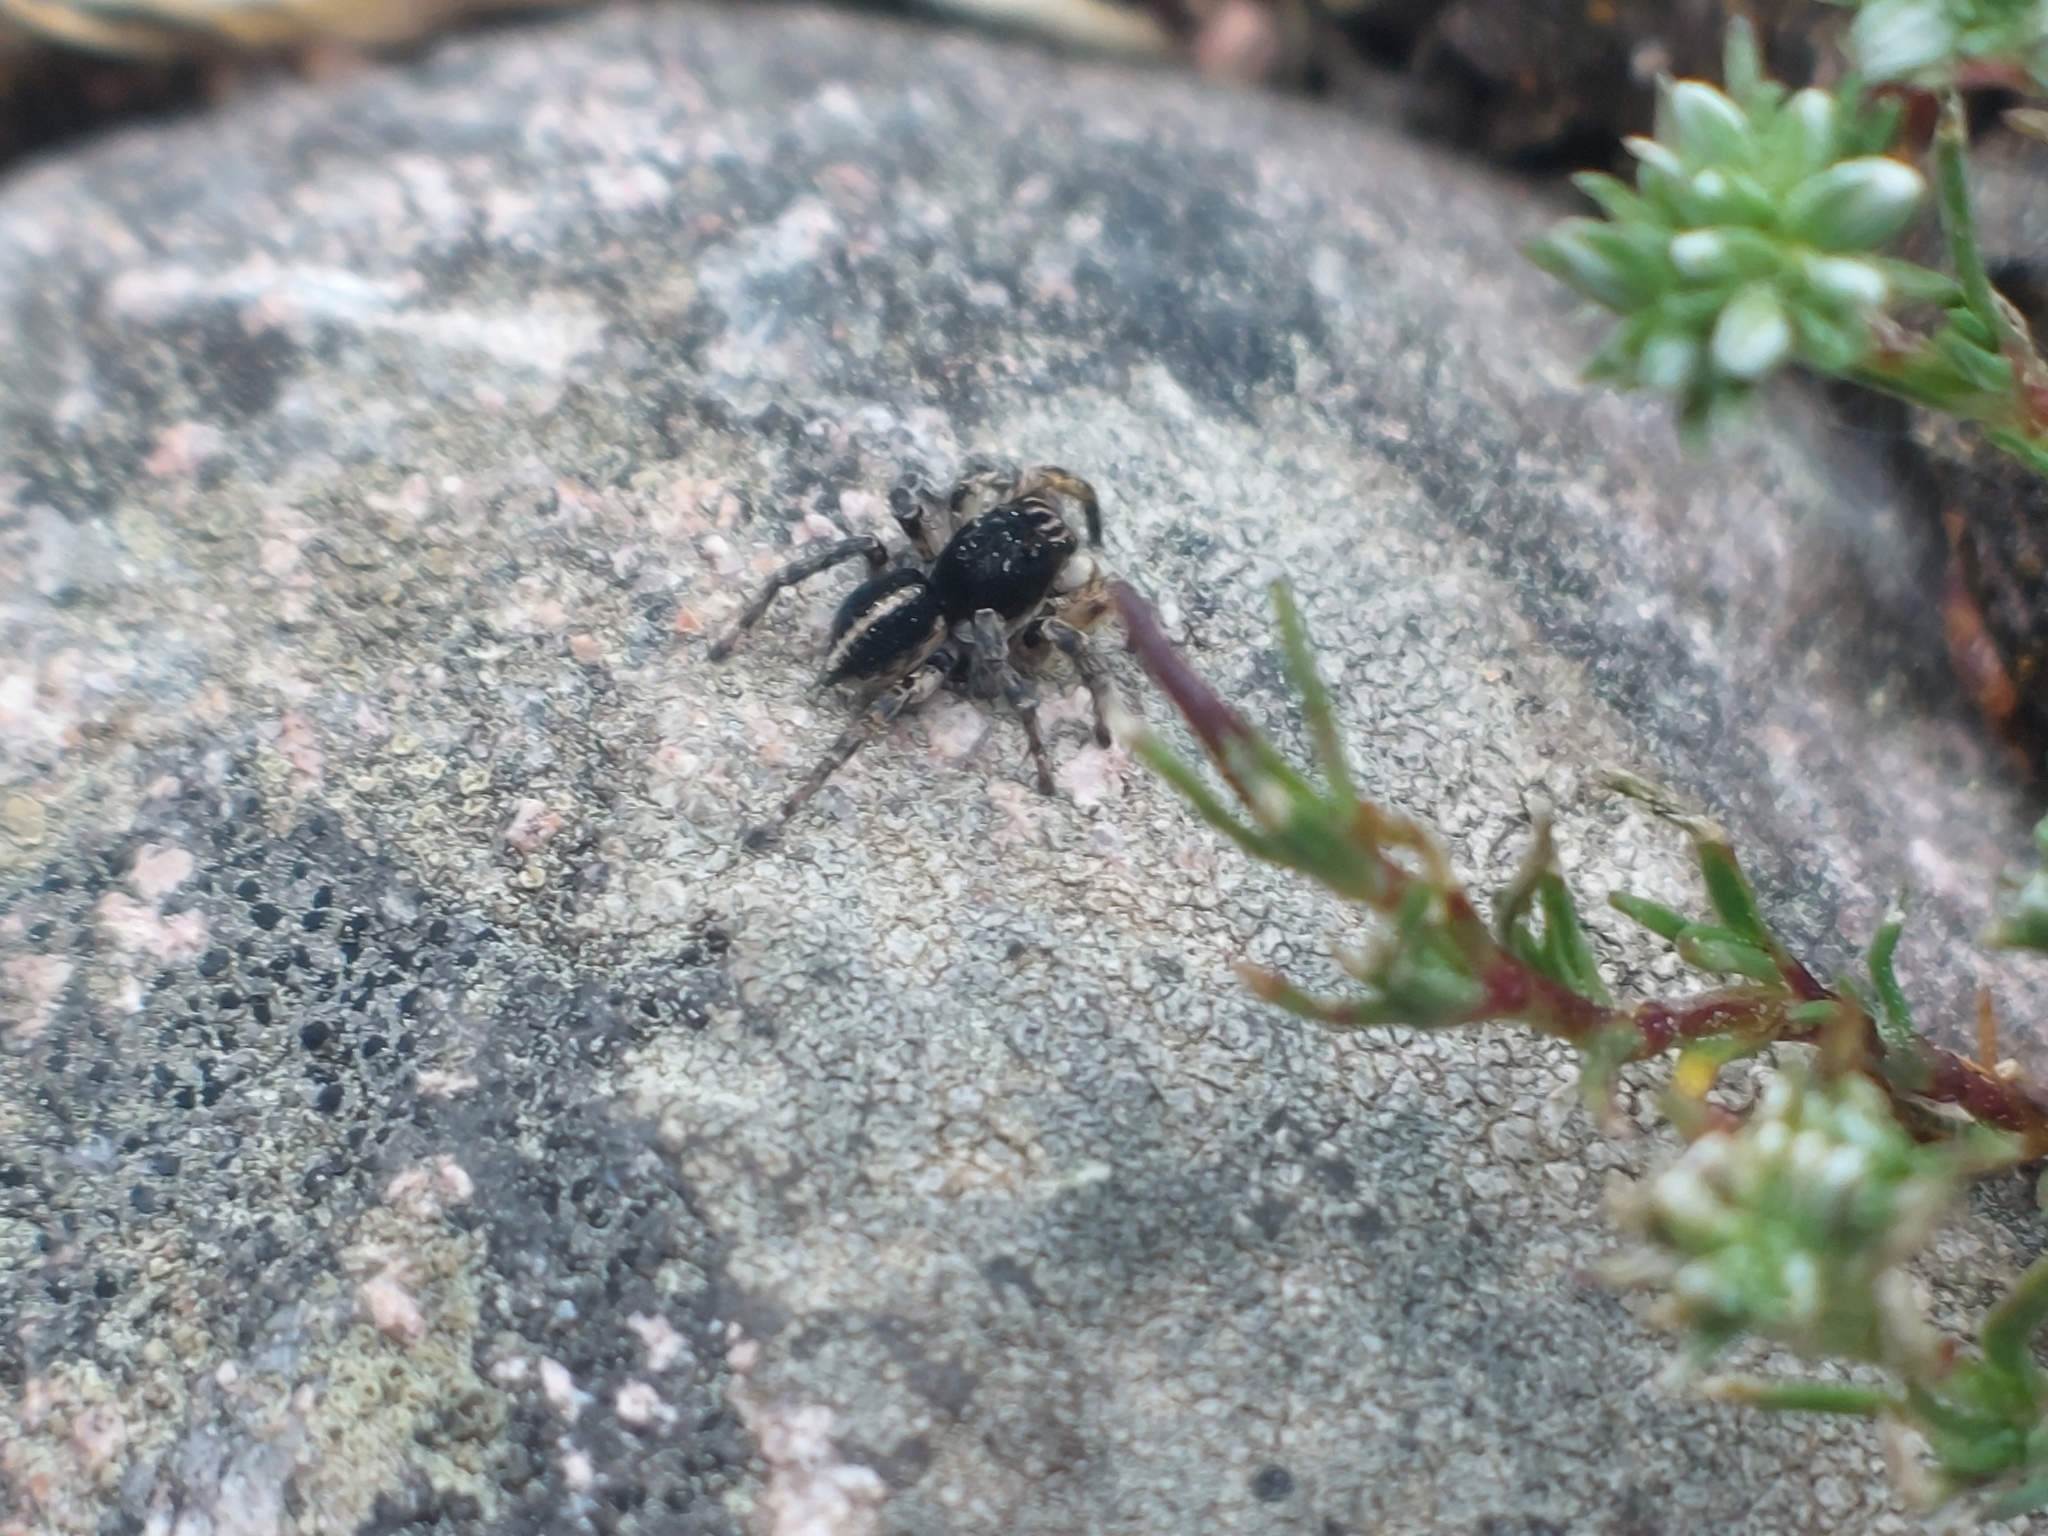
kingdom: Animalia
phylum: Arthropoda
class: Arachnida
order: Araneae
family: Salticidae
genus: Aelurillus
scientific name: Aelurillus v-insignitus
